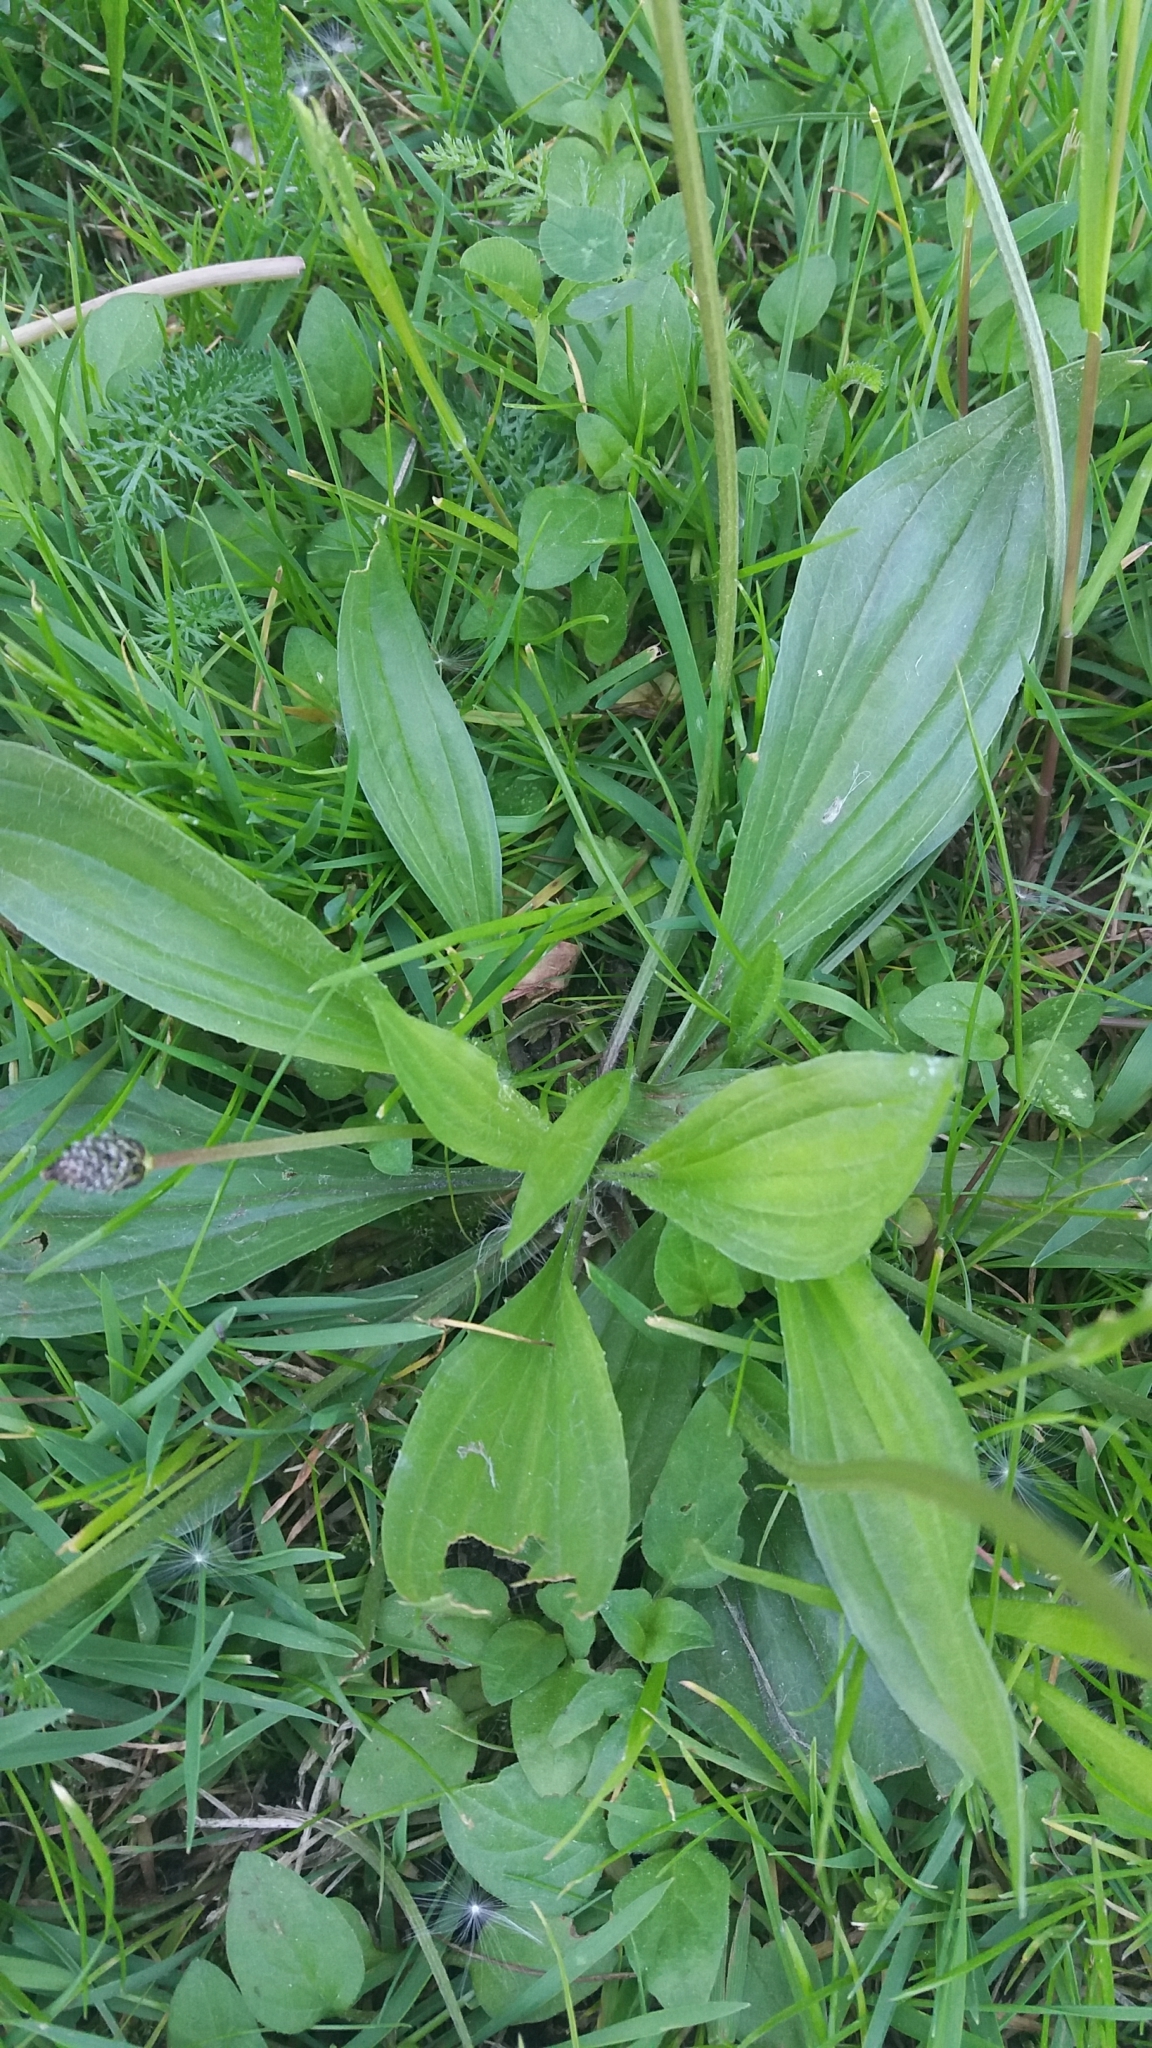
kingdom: Plantae
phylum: Tracheophyta
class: Magnoliopsida
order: Lamiales
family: Plantaginaceae
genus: Plantago
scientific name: Plantago lanceolata
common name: Ribwort plantain
